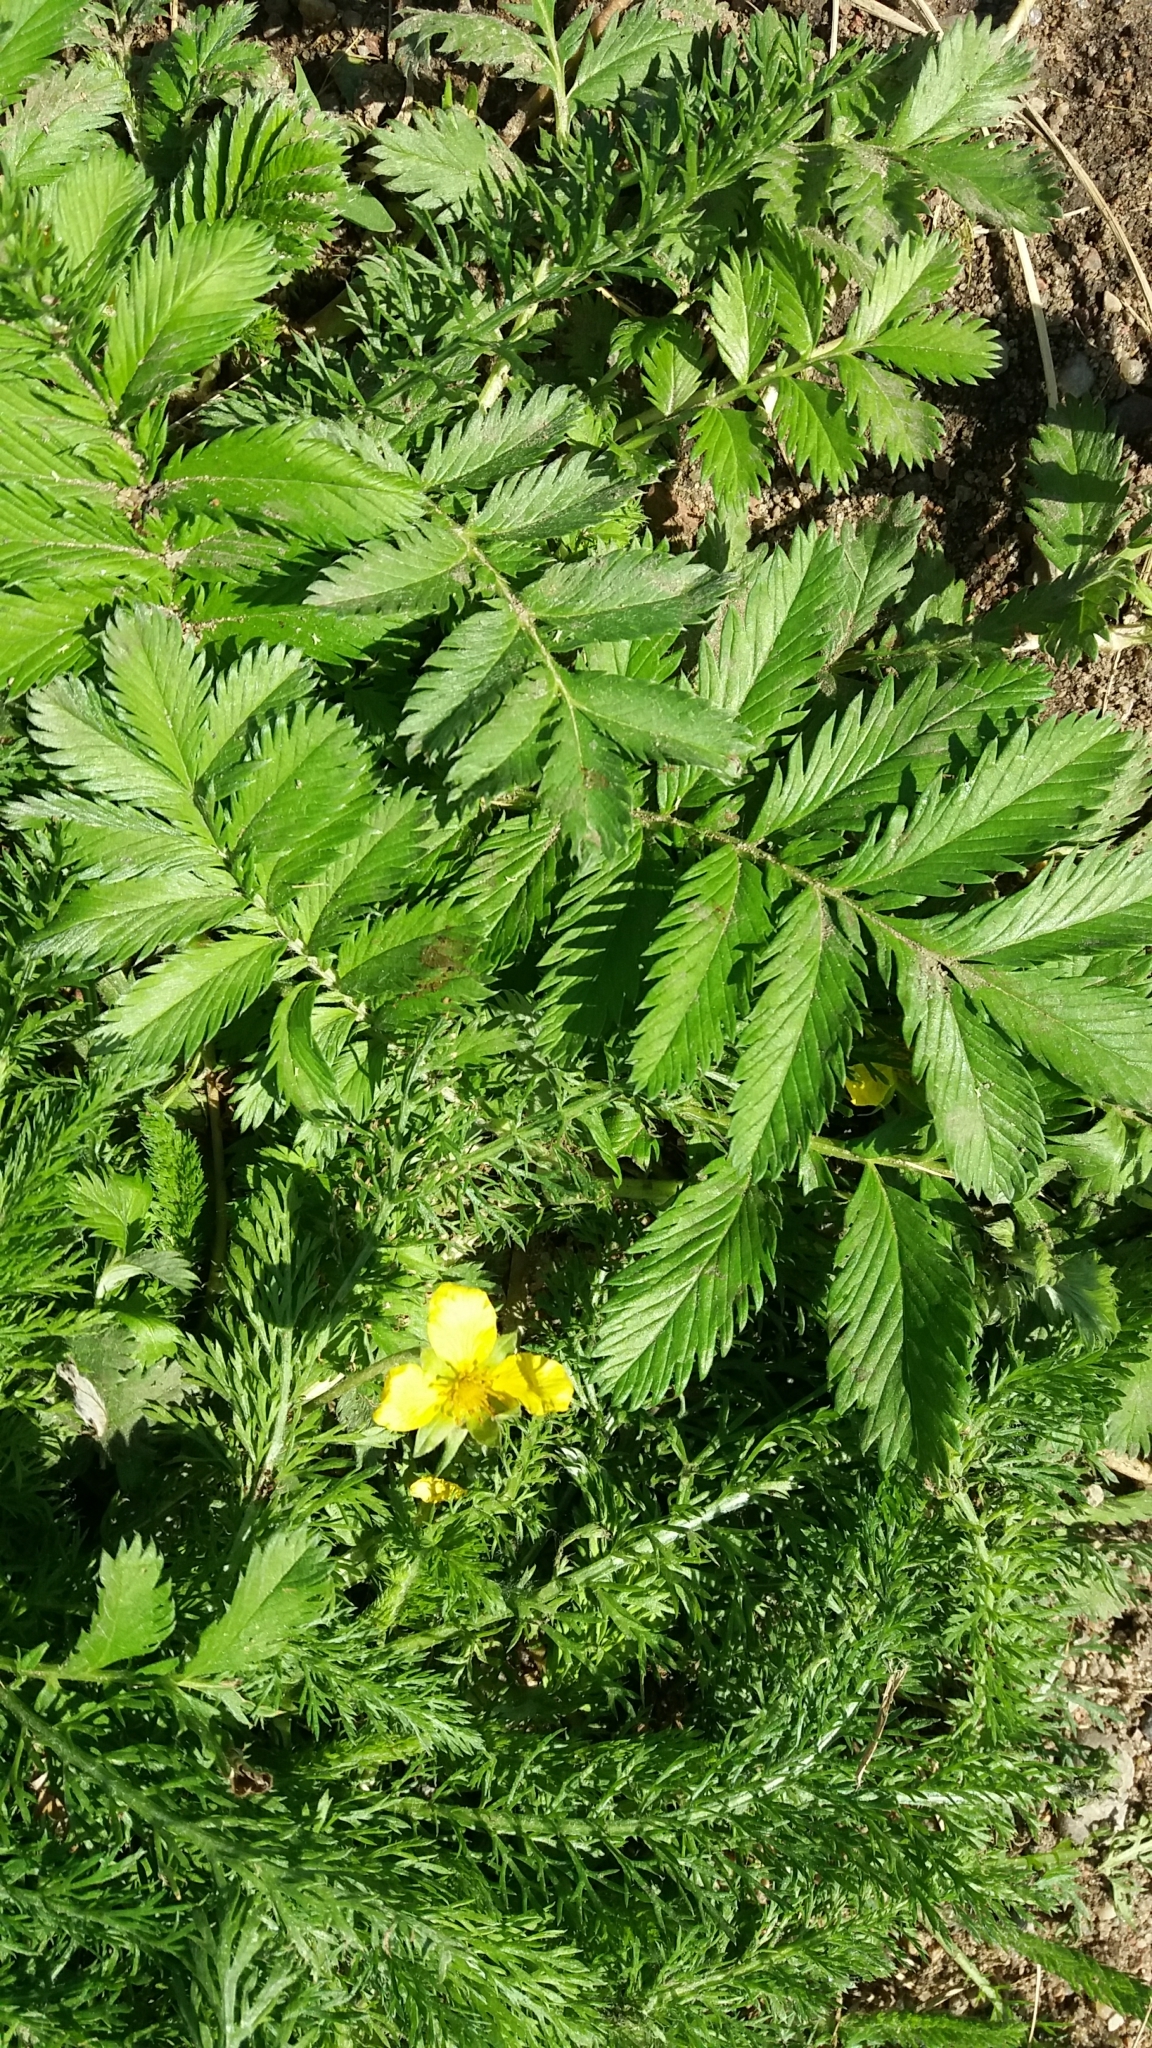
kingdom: Plantae
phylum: Tracheophyta
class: Magnoliopsida
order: Rosales
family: Rosaceae
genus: Argentina
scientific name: Argentina anserina
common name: Common silverweed
